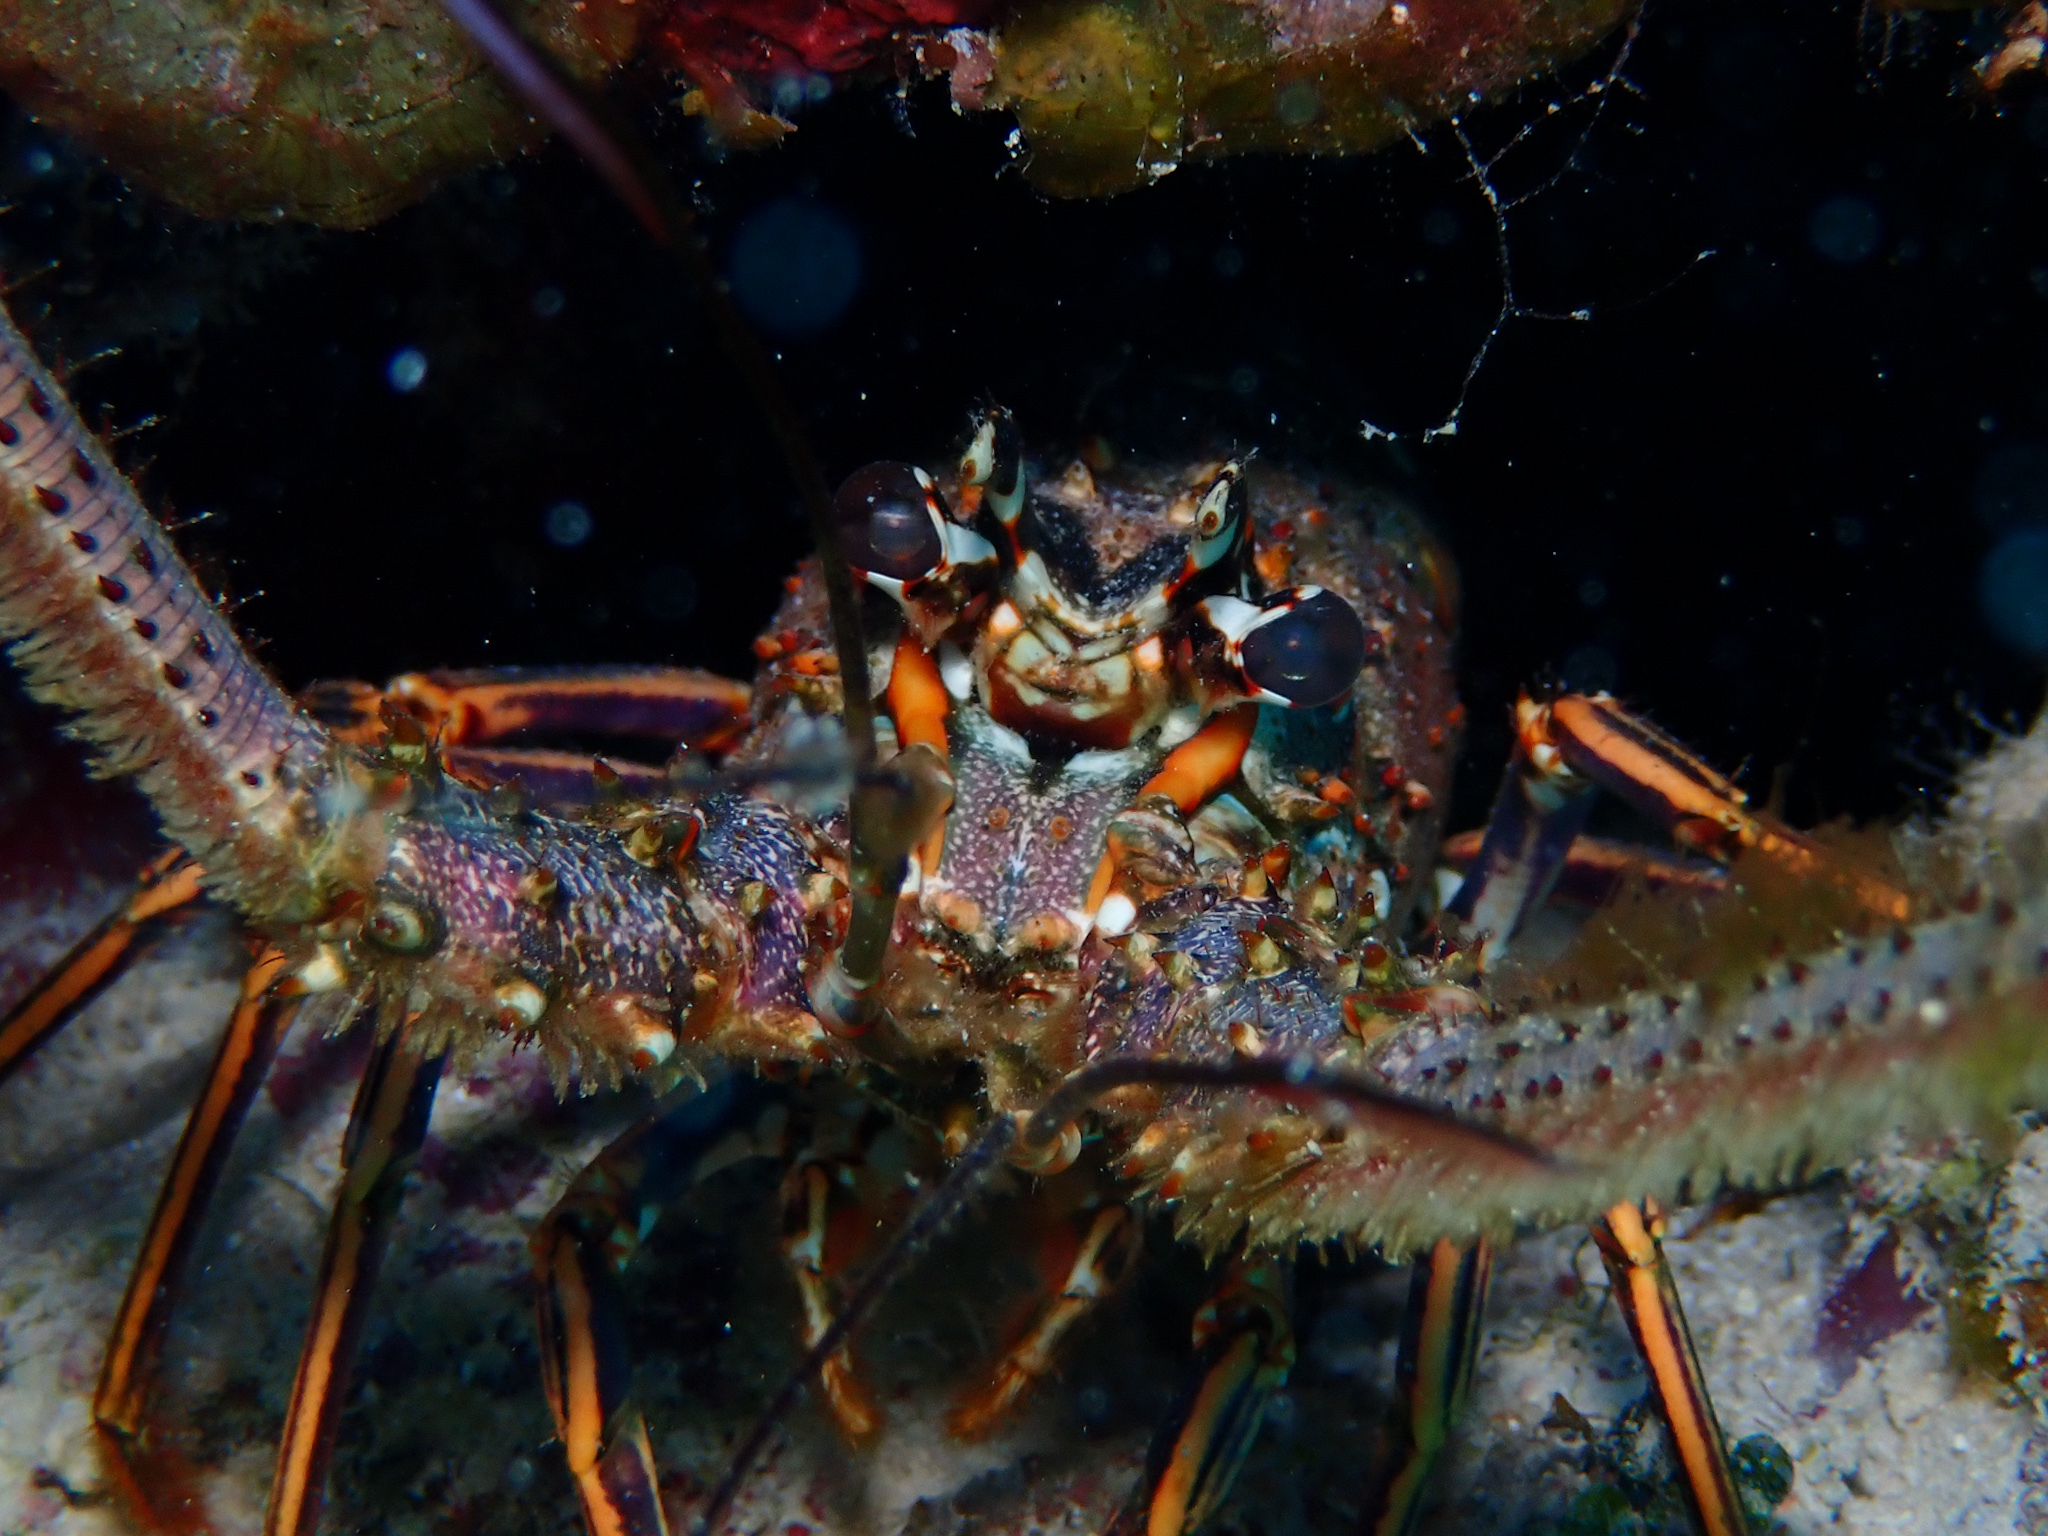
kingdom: Animalia
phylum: Arthropoda
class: Malacostraca
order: Decapoda
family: Palinuridae
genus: Panulirus
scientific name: Panulirus argus
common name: Caribbean spiny lobster
